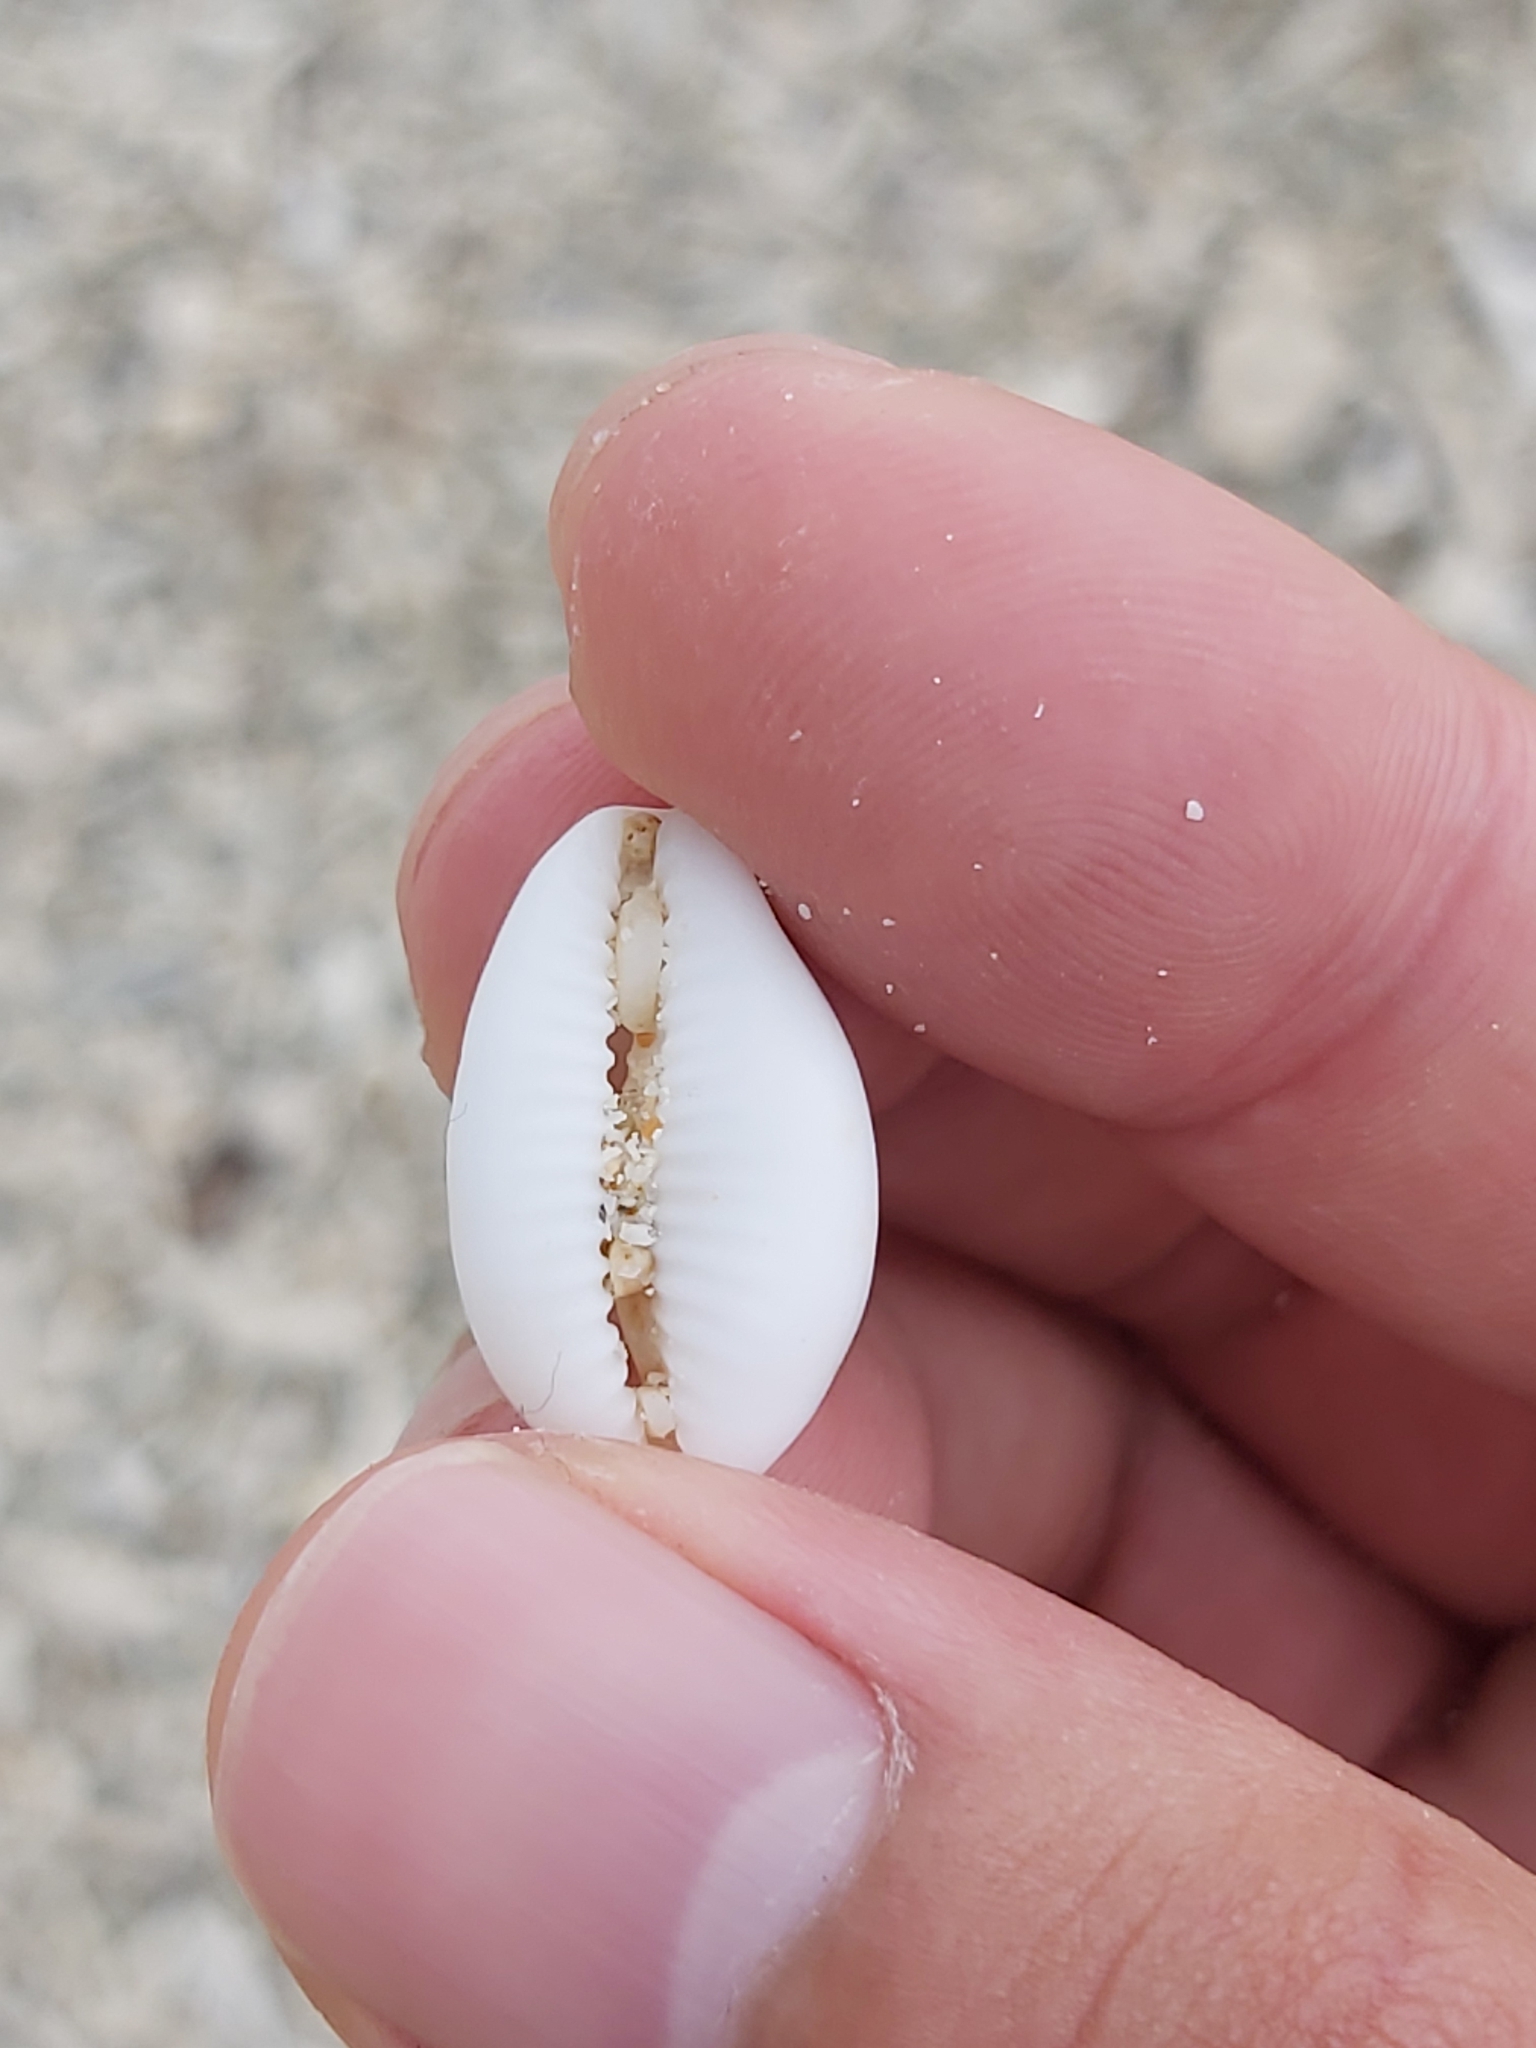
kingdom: Animalia
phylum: Mollusca
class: Gastropoda
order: Littorinimorpha
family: Cypraeidae
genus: Palmadusta
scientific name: Palmadusta asellus
